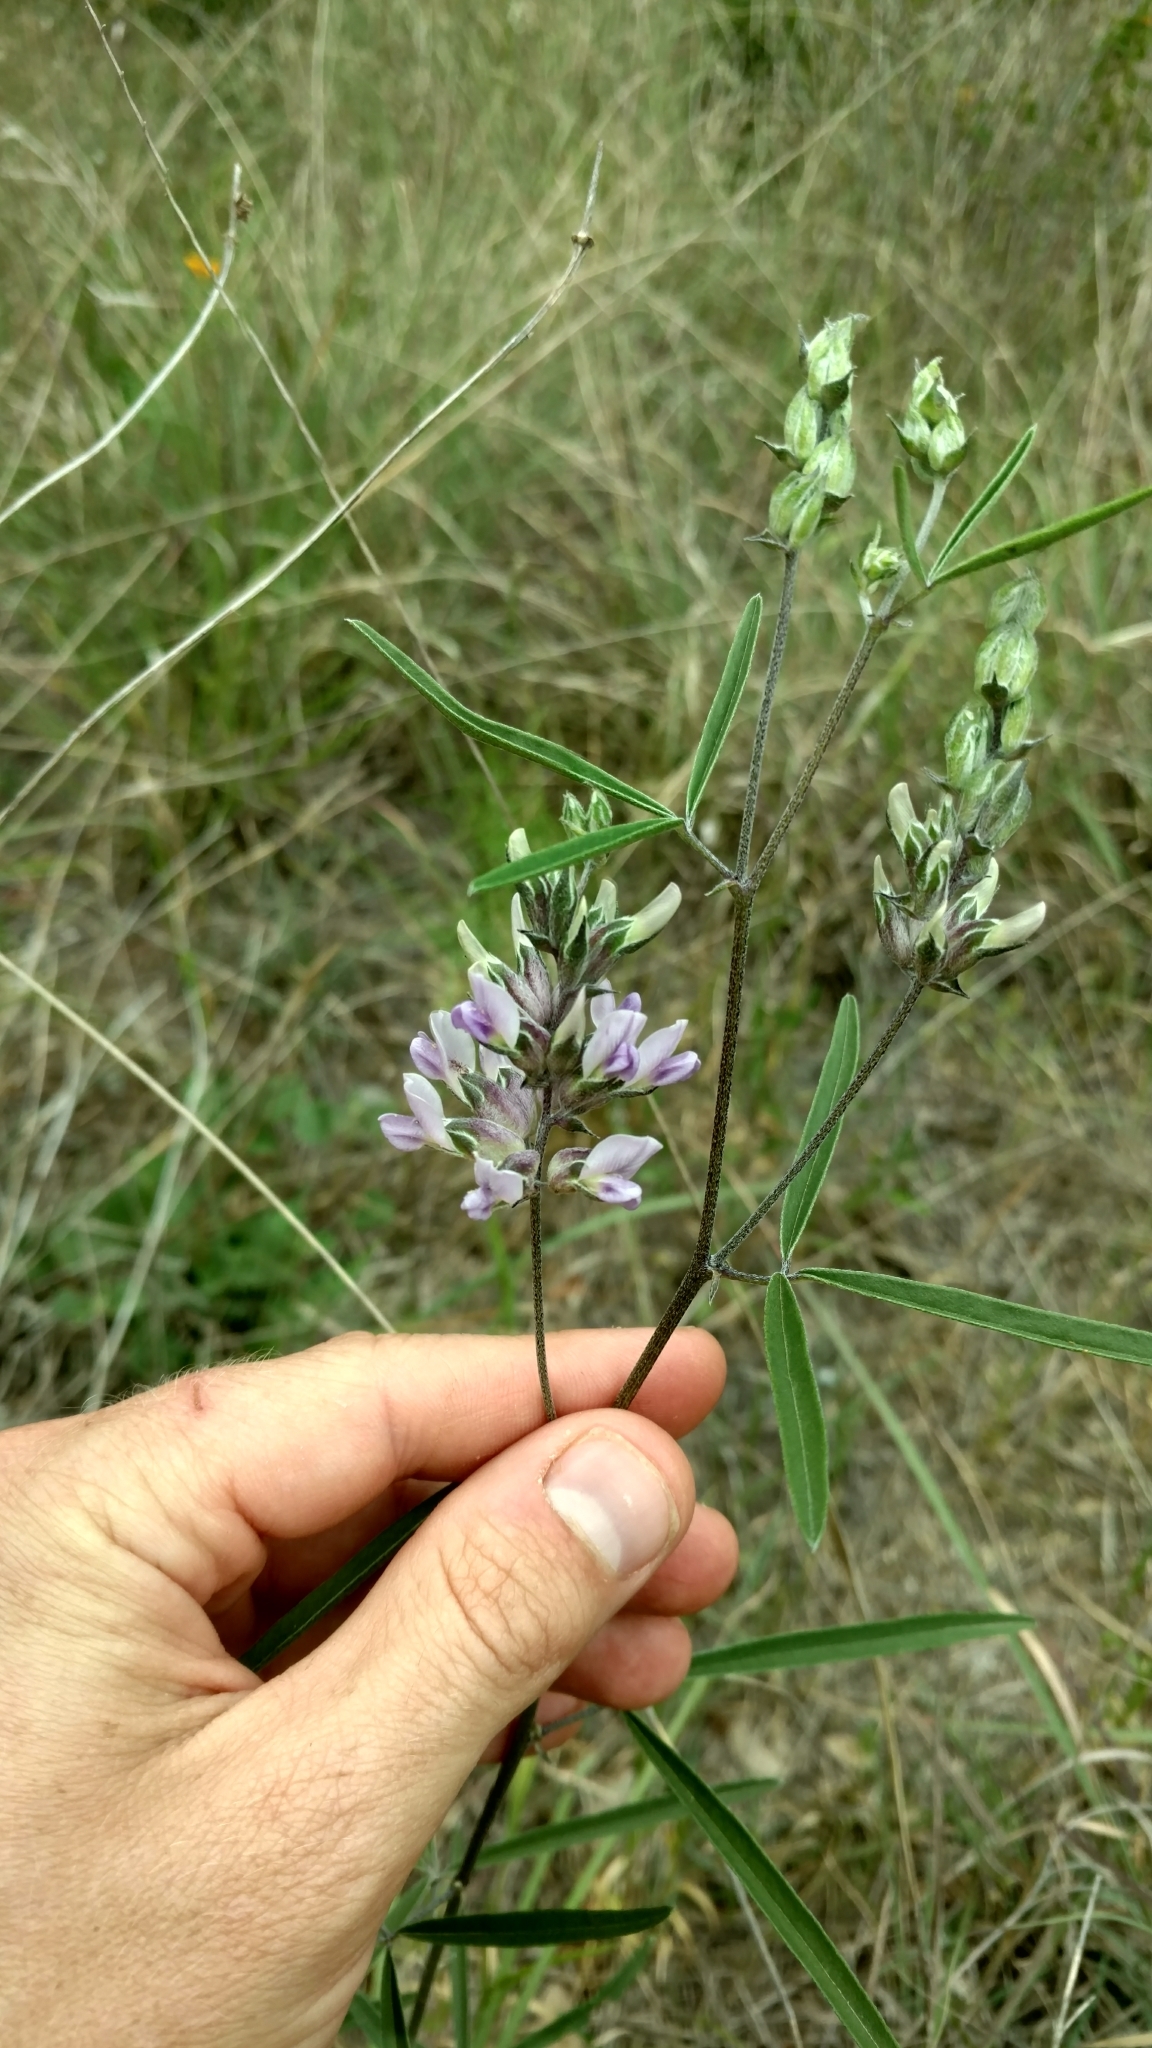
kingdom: Plantae
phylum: Tracheophyta
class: Magnoliopsida
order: Fabales
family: Fabaceae
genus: Pediomelum
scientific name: Pediomelum cyphocalyx
